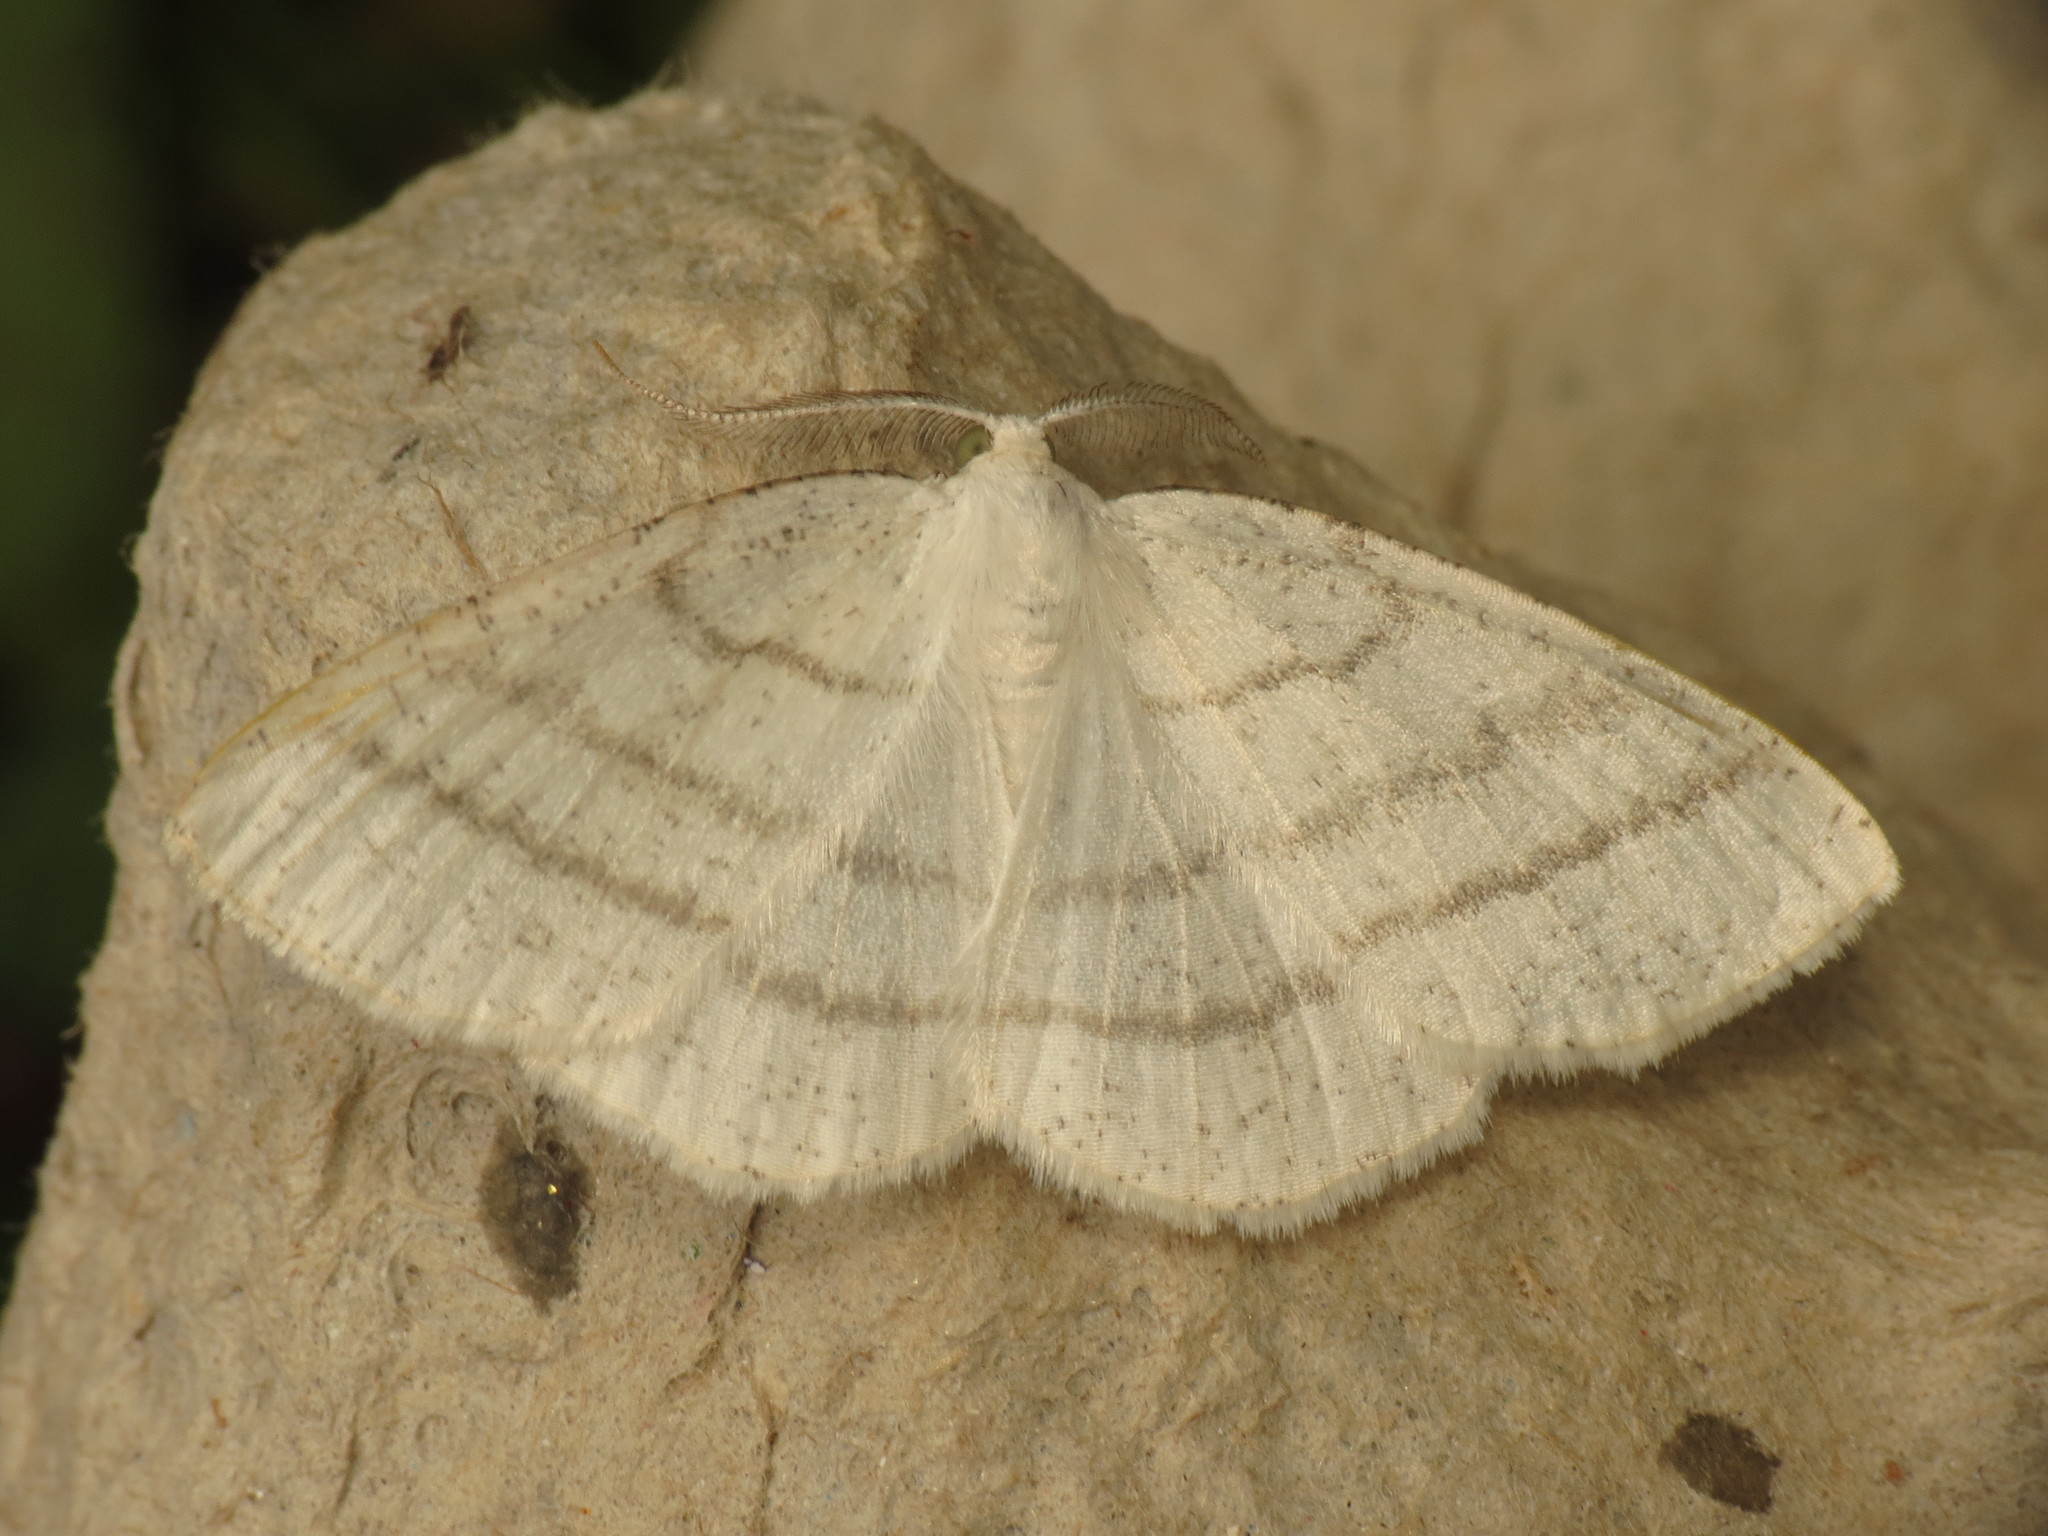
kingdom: Animalia
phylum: Arthropoda
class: Insecta
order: Lepidoptera
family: Geometridae
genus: Cabera
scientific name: Cabera pusaria
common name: Common white wave
